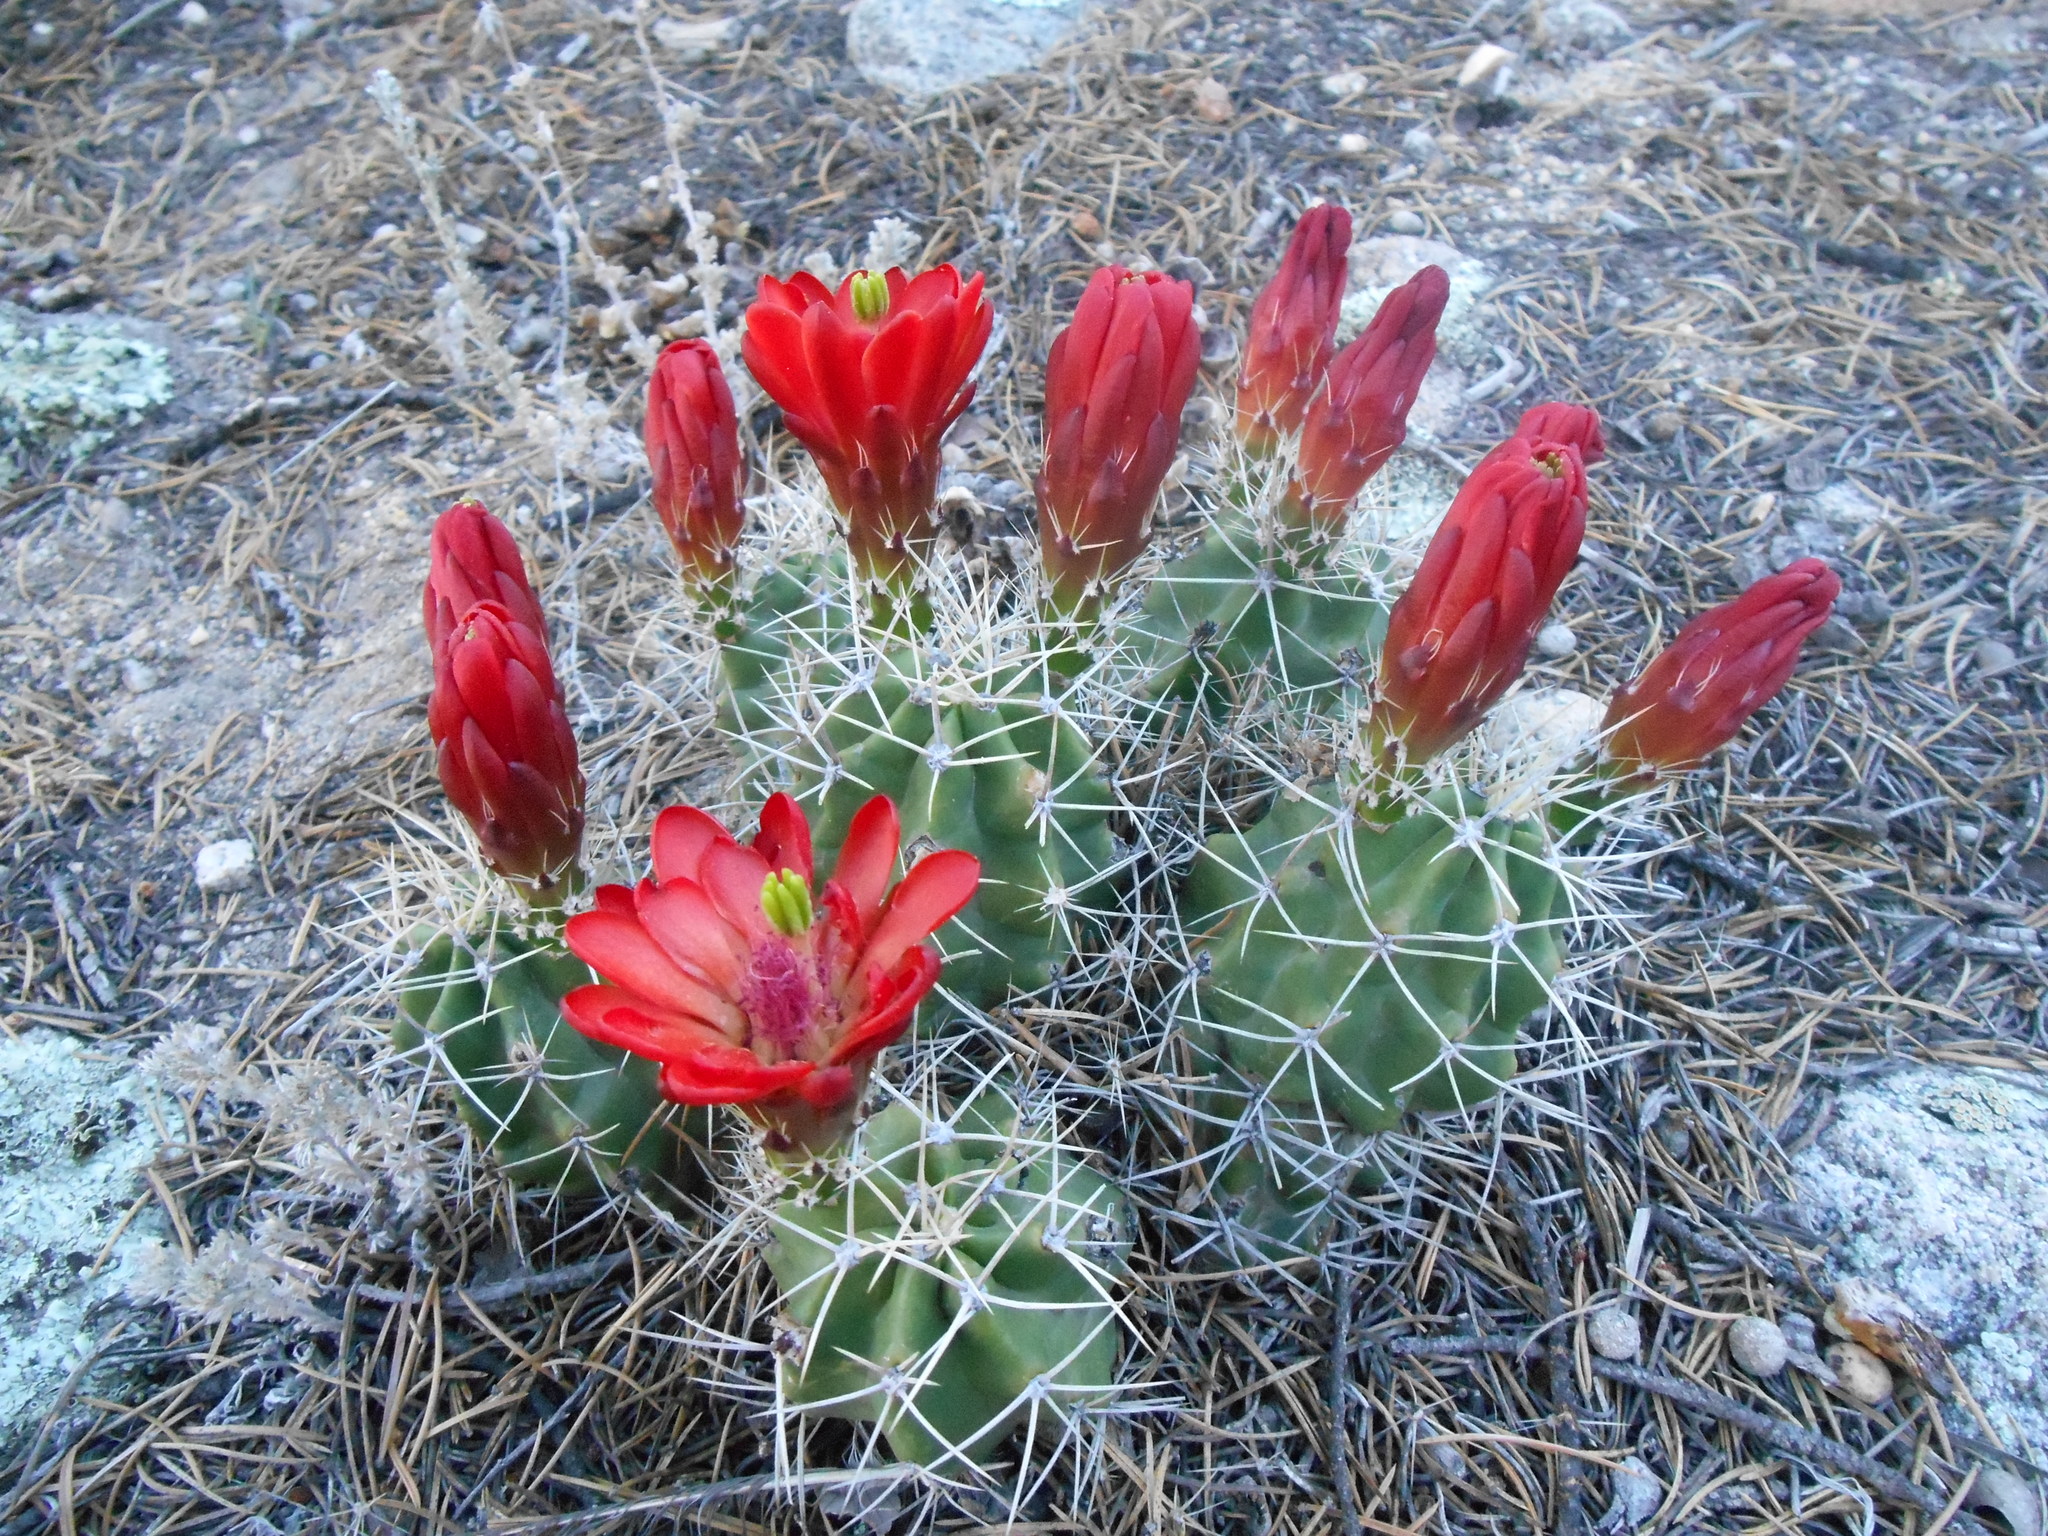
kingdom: Plantae
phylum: Tracheophyta
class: Magnoliopsida
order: Caryophyllales
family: Cactaceae
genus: Echinocereus
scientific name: Echinocereus triglochidiatus
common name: Claretcup hedgehog
